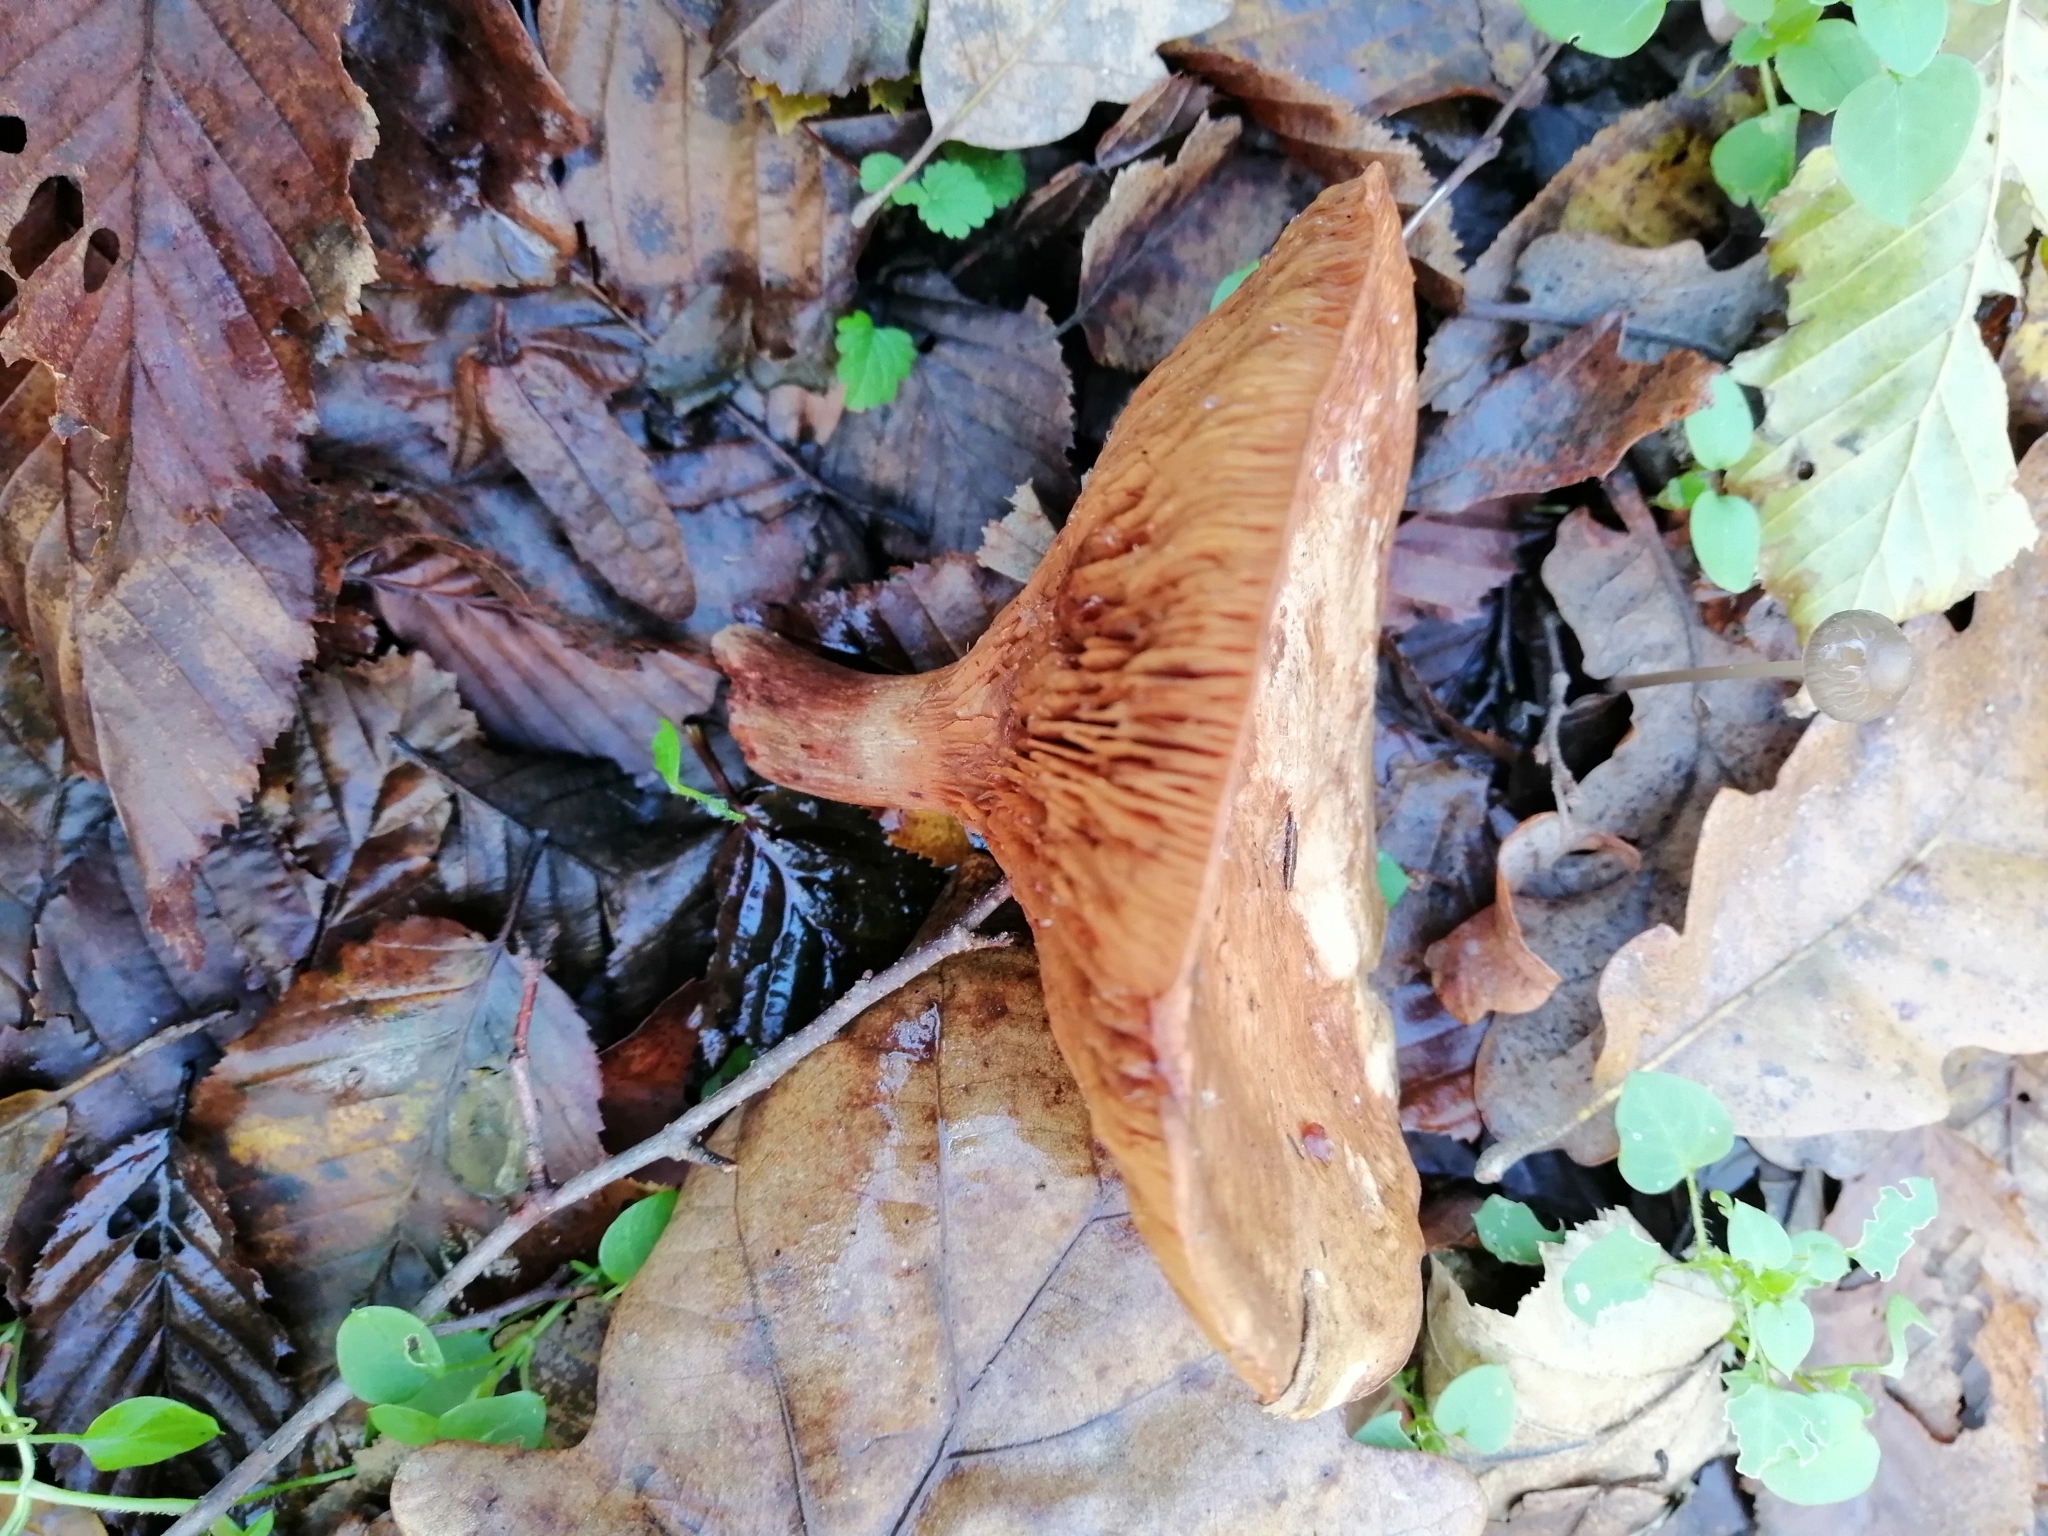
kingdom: Fungi
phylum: Basidiomycota
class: Agaricomycetes
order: Boletales
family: Paxillaceae
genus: Paxillus
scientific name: Paxillus involutus
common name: Brown roll rim
